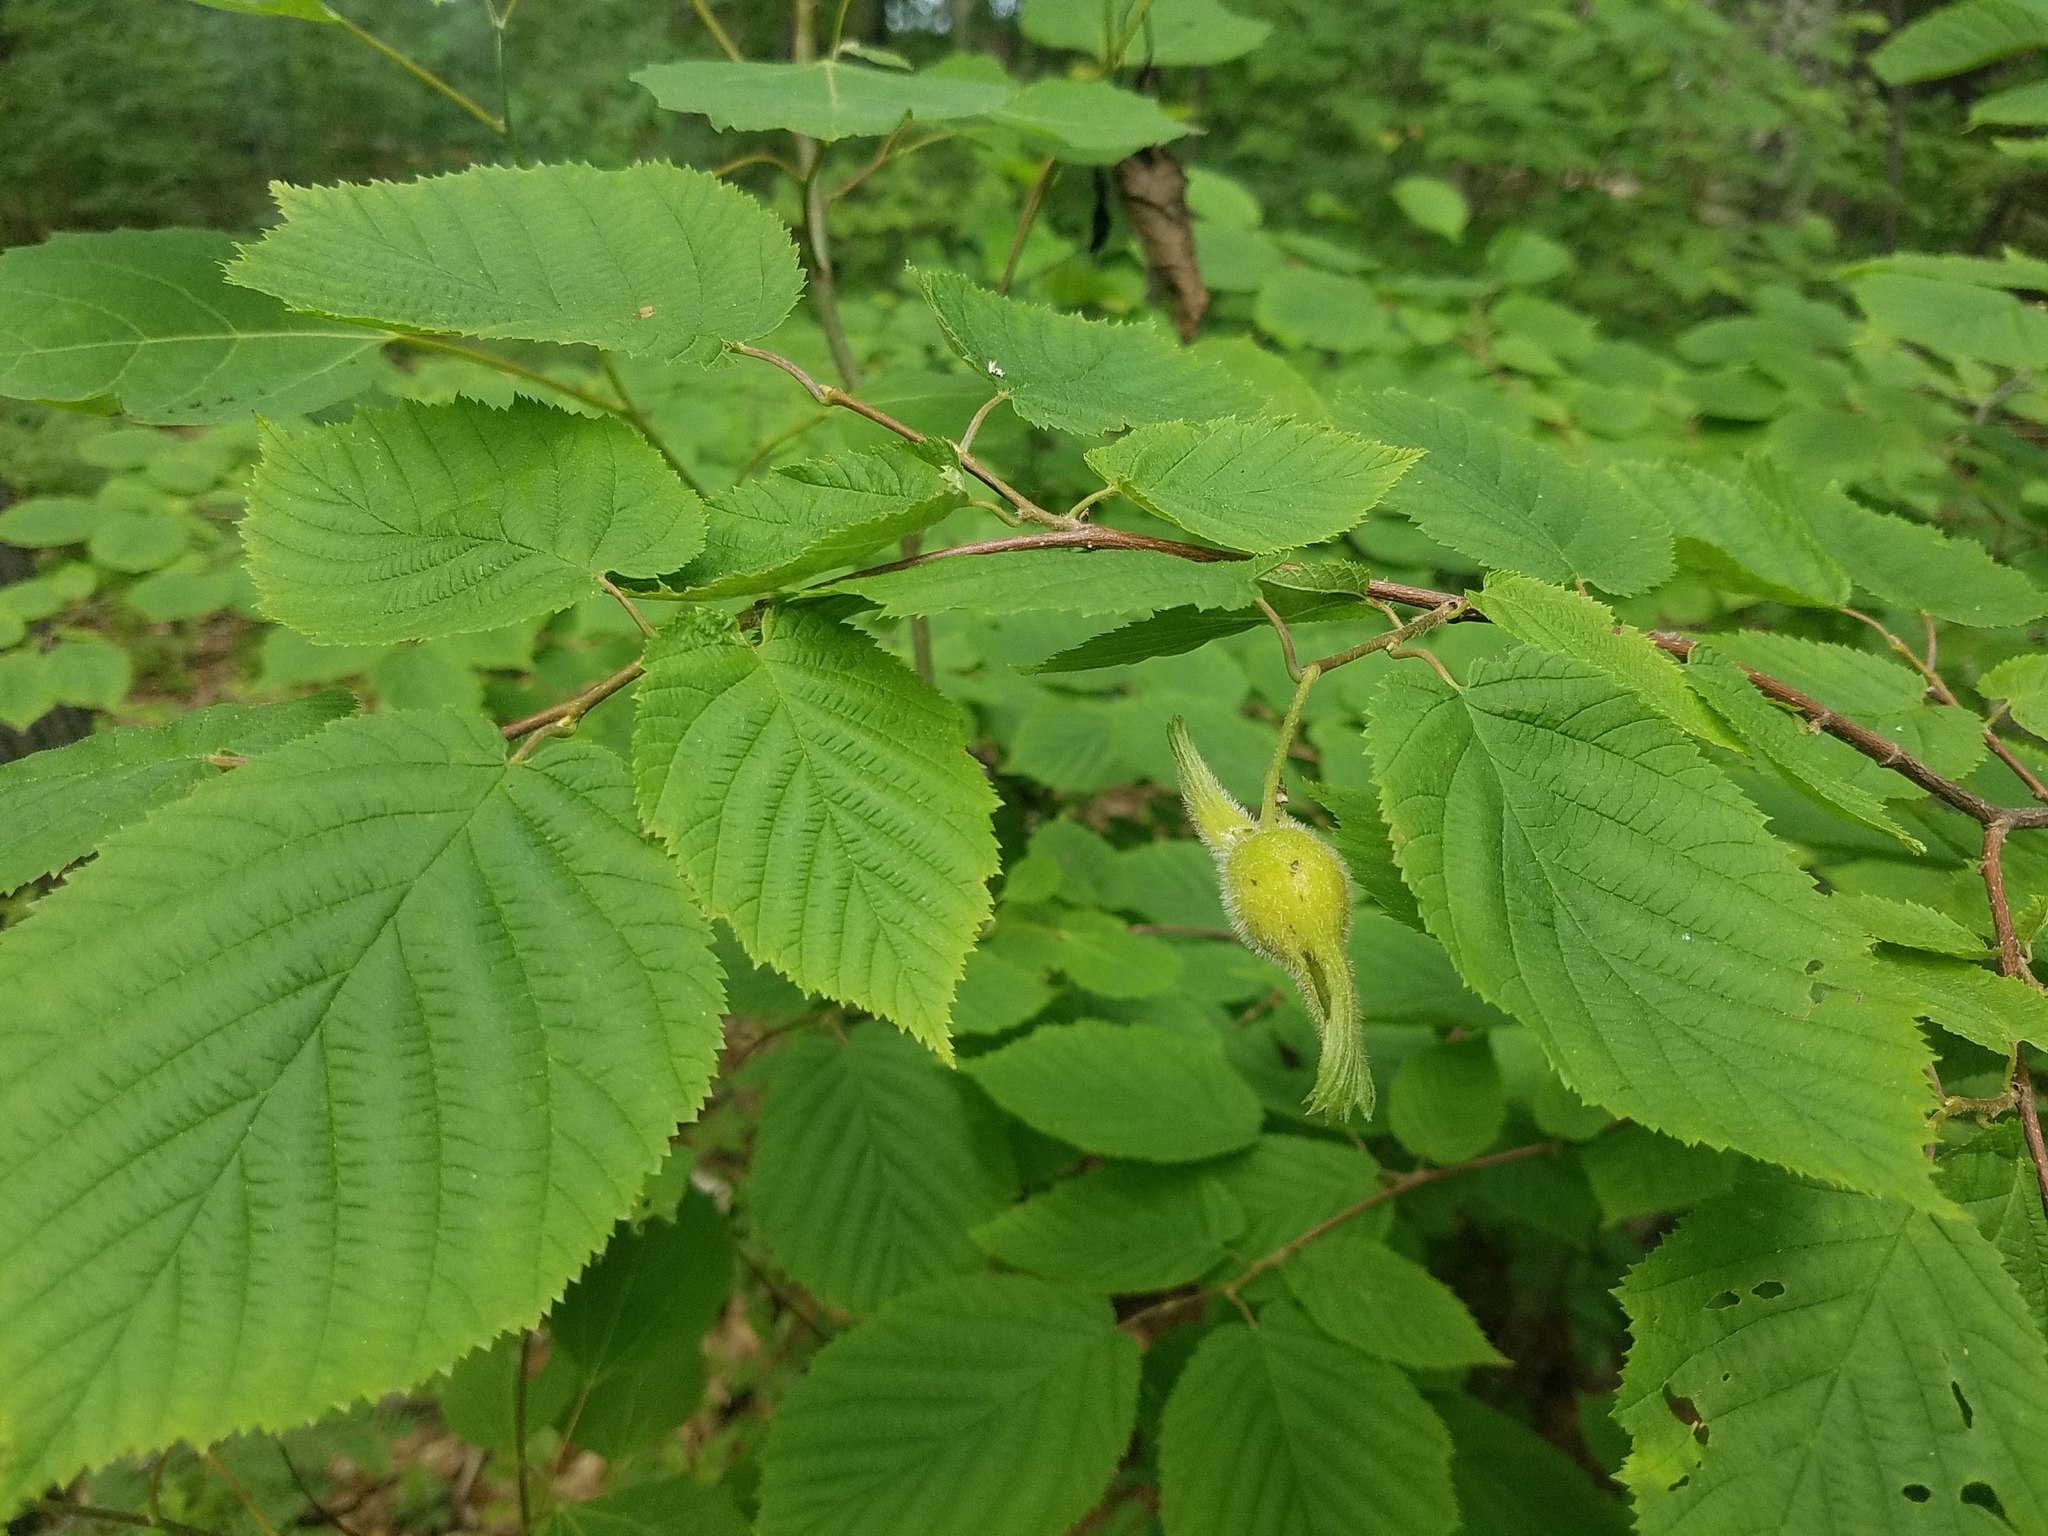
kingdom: Plantae
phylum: Tracheophyta
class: Magnoliopsida
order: Fagales
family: Betulaceae
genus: Corylus
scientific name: Corylus cornuta
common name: Beaked hazel
